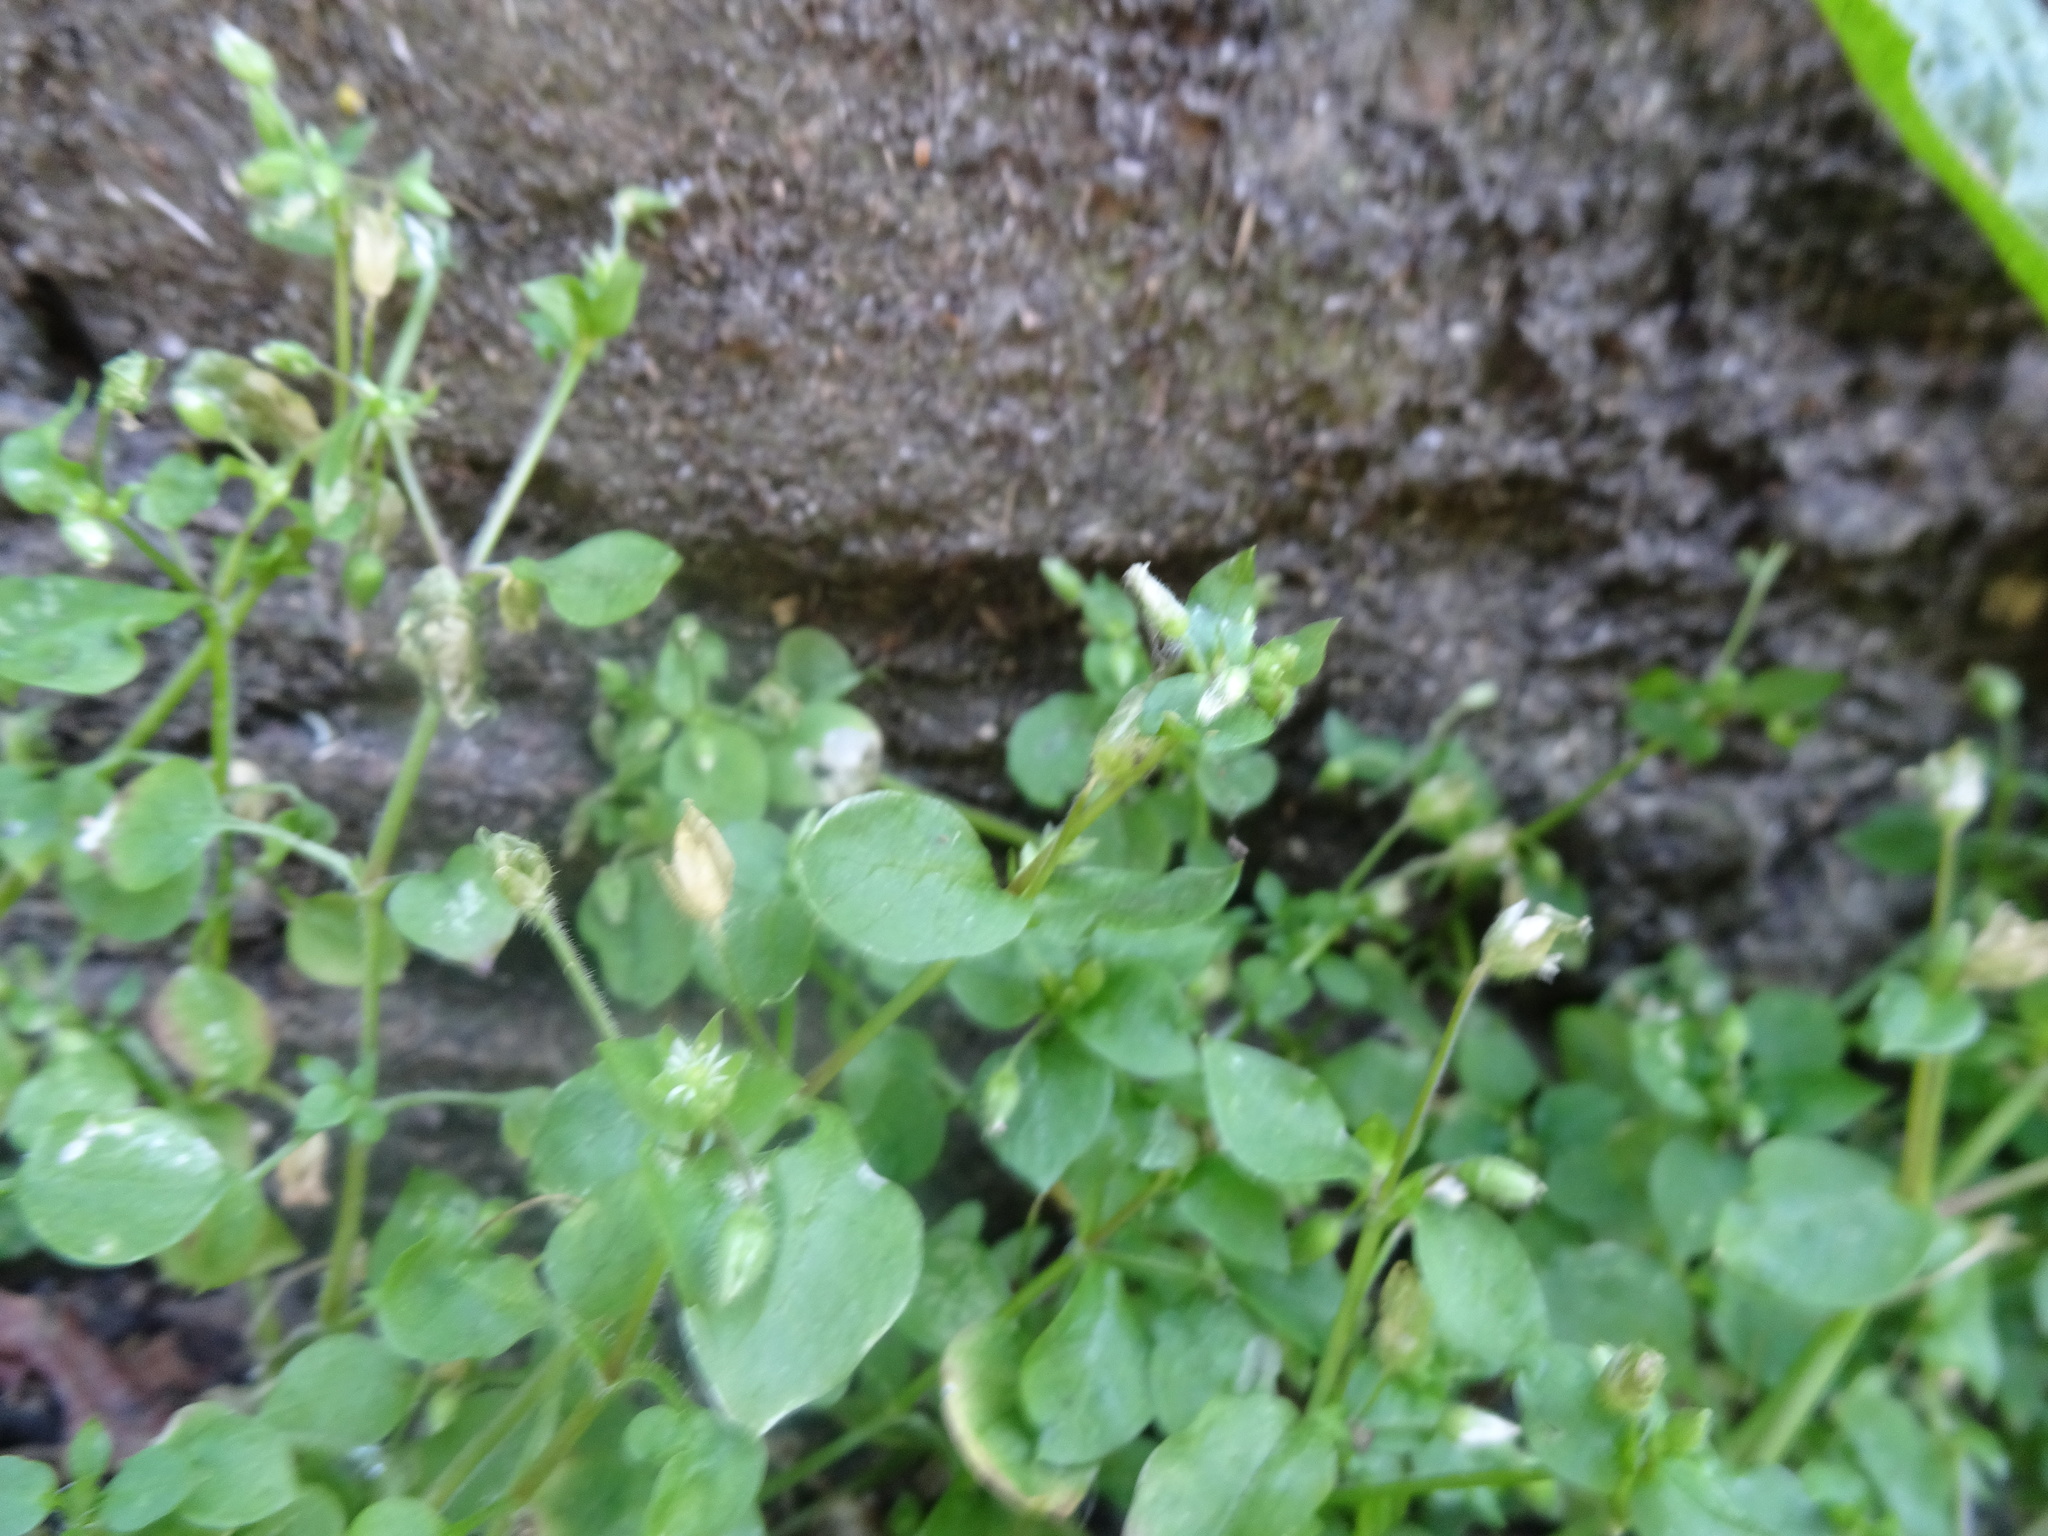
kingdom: Plantae
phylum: Tracheophyta
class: Magnoliopsida
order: Caryophyllales
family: Caryophyllaceae
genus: Stellaria
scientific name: Stellaria media
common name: Common chickweed
